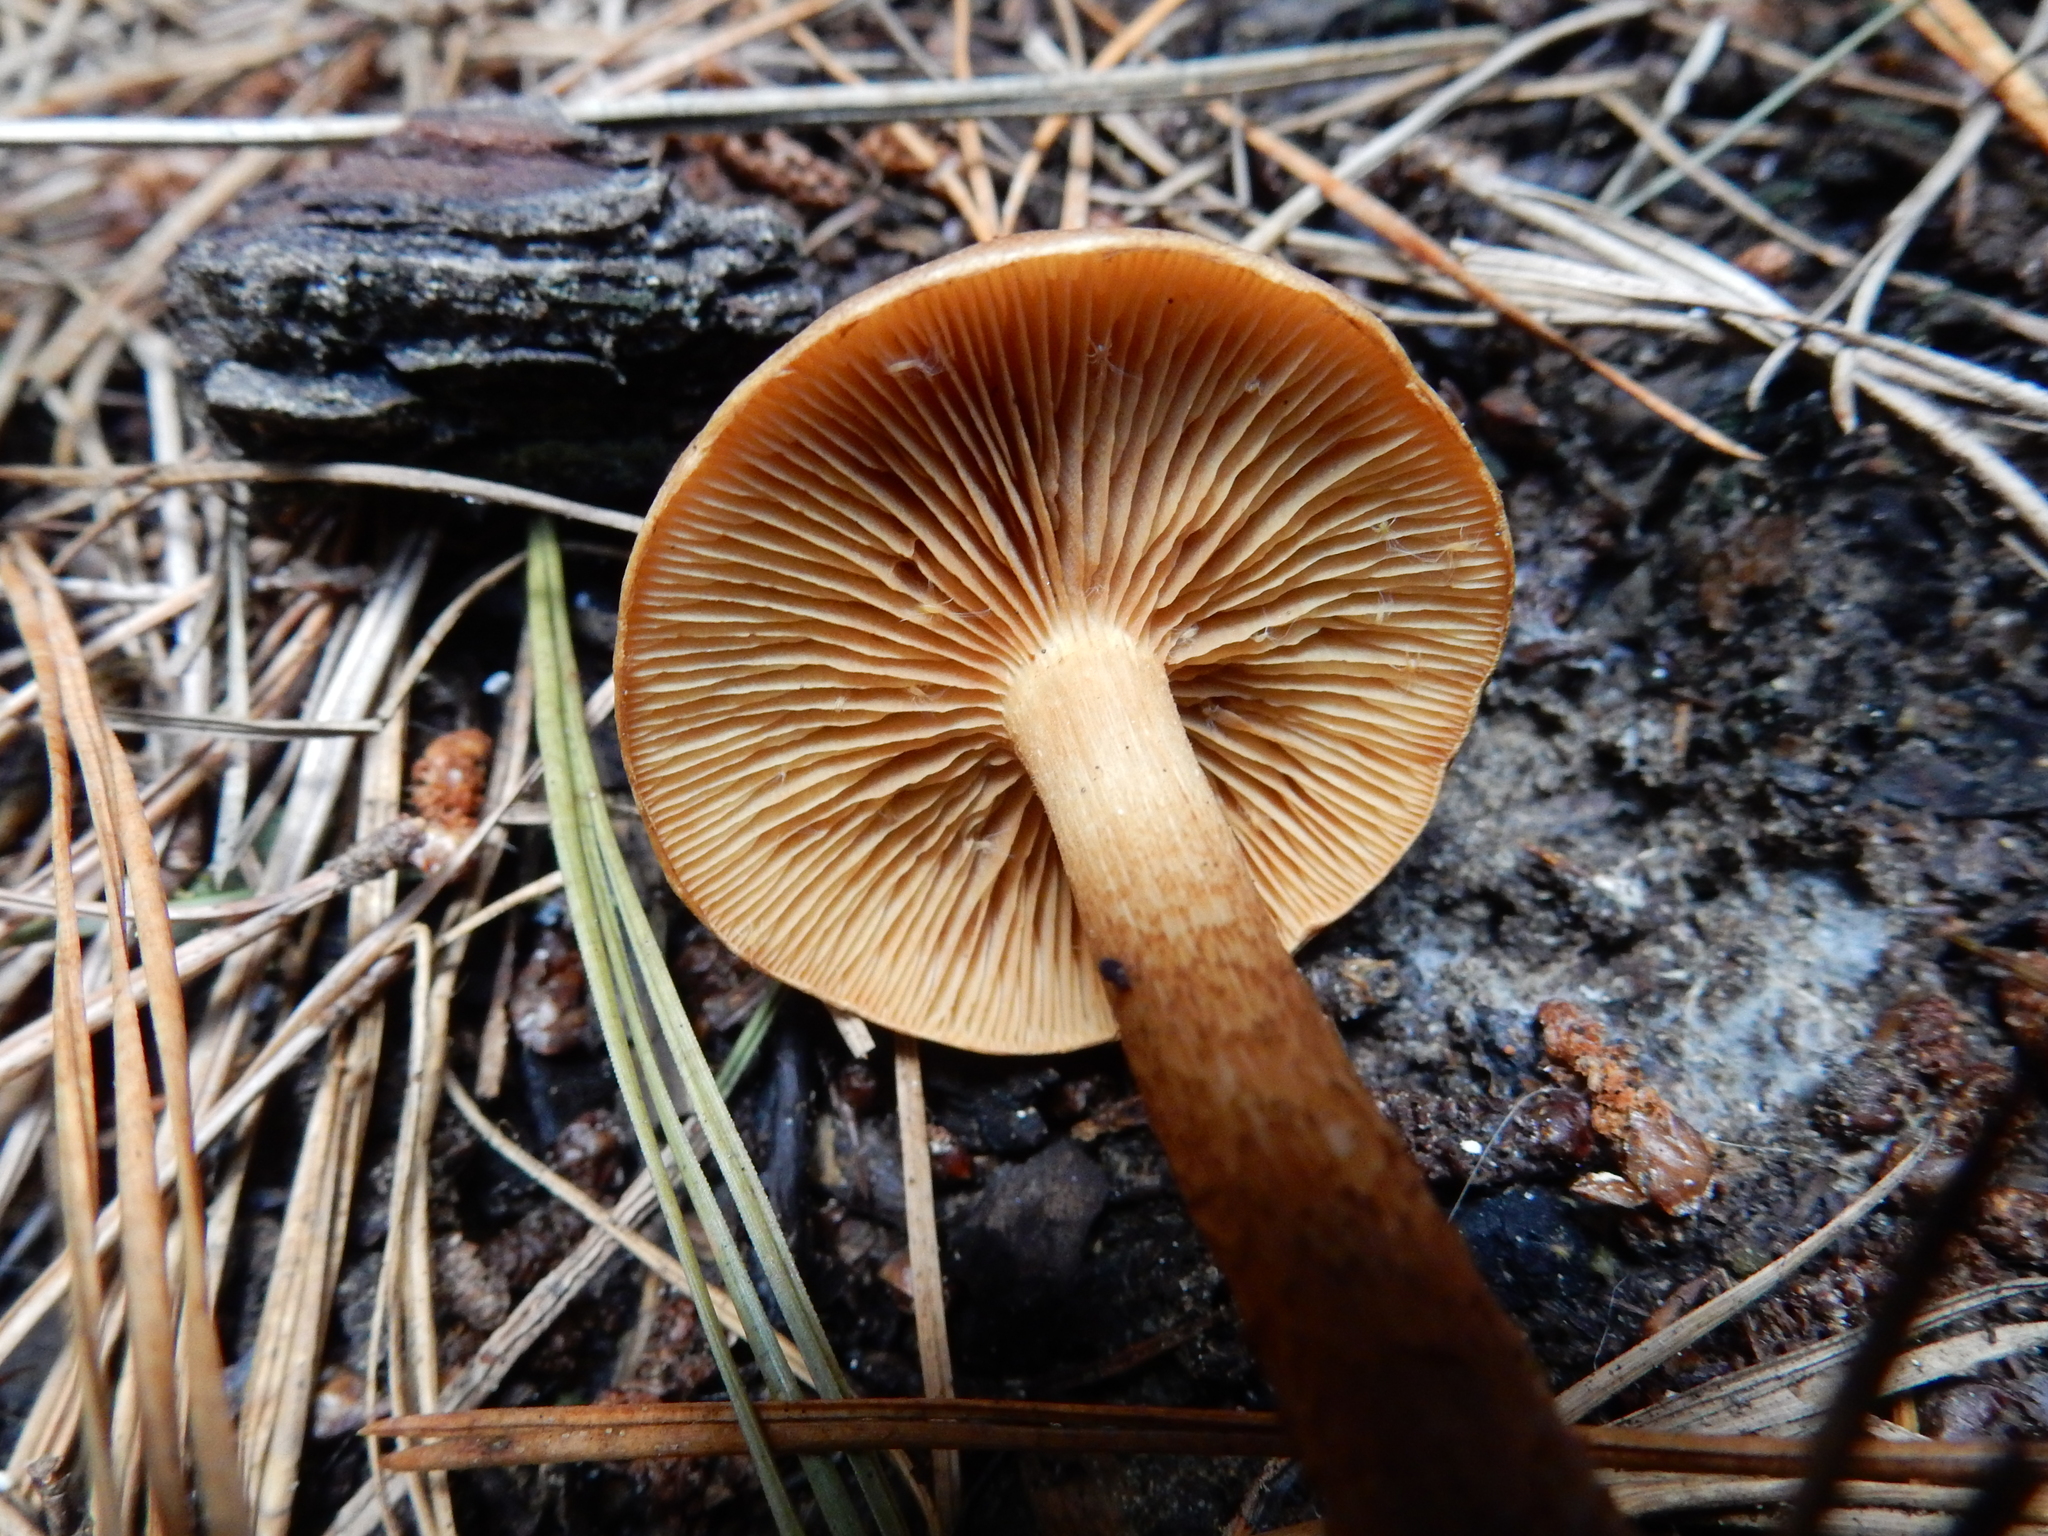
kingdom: Fungi
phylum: Basidiomycota
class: Agaricomycetes
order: Agaricales
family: Strophariaceae
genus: Pholiota
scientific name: Pholiota multicingulata
